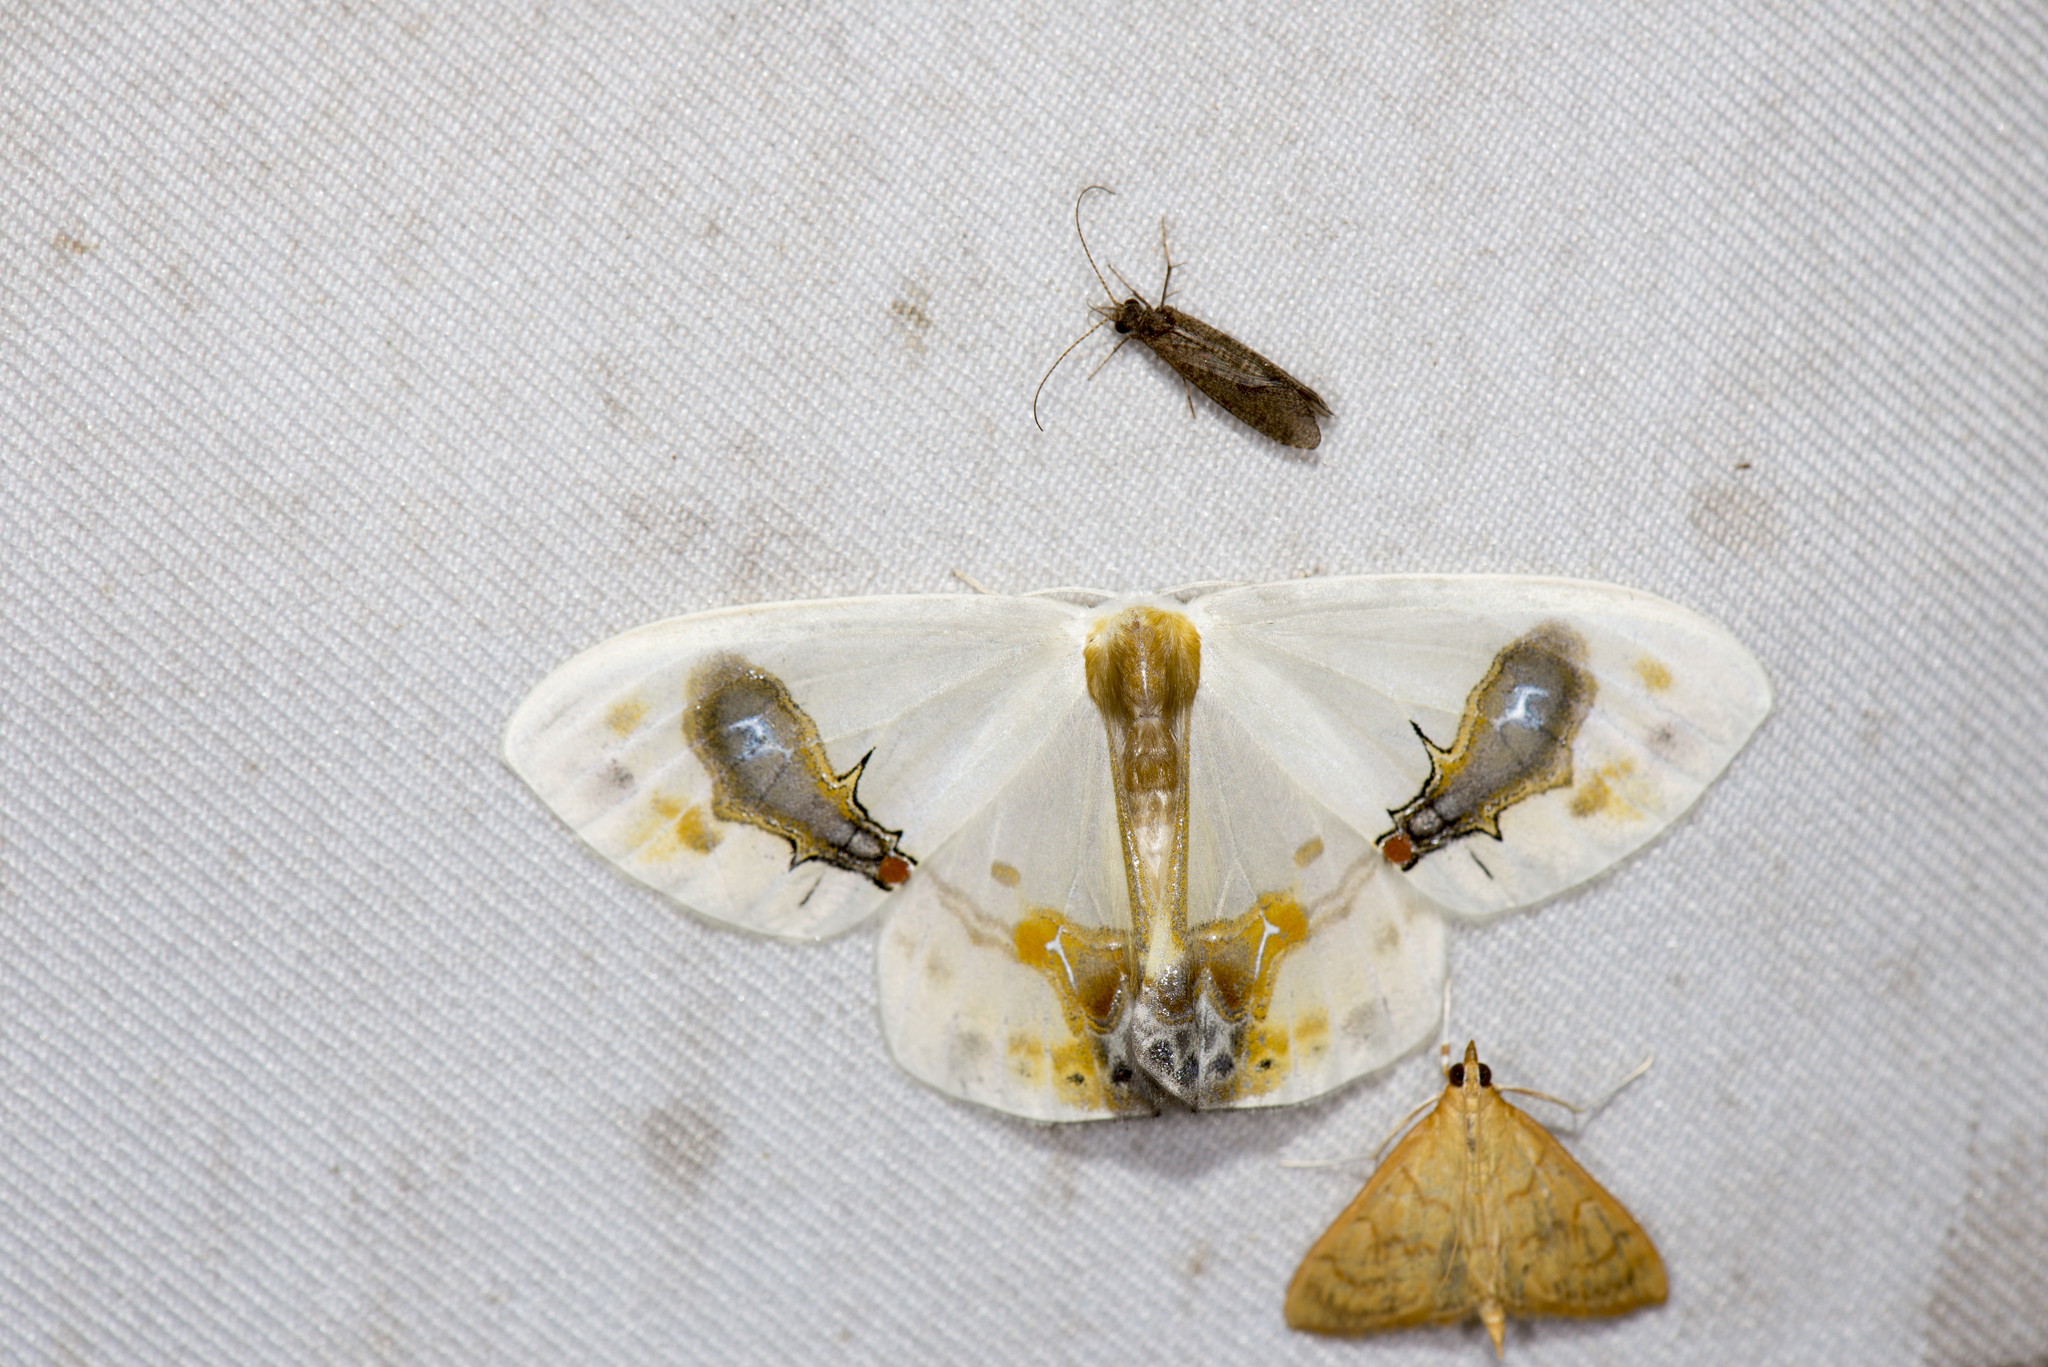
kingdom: Animalia
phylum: Arthropoda
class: Insecta
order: Lepidoptera
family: Drepanidae
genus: Macrocilix
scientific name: Macrocilix maia
